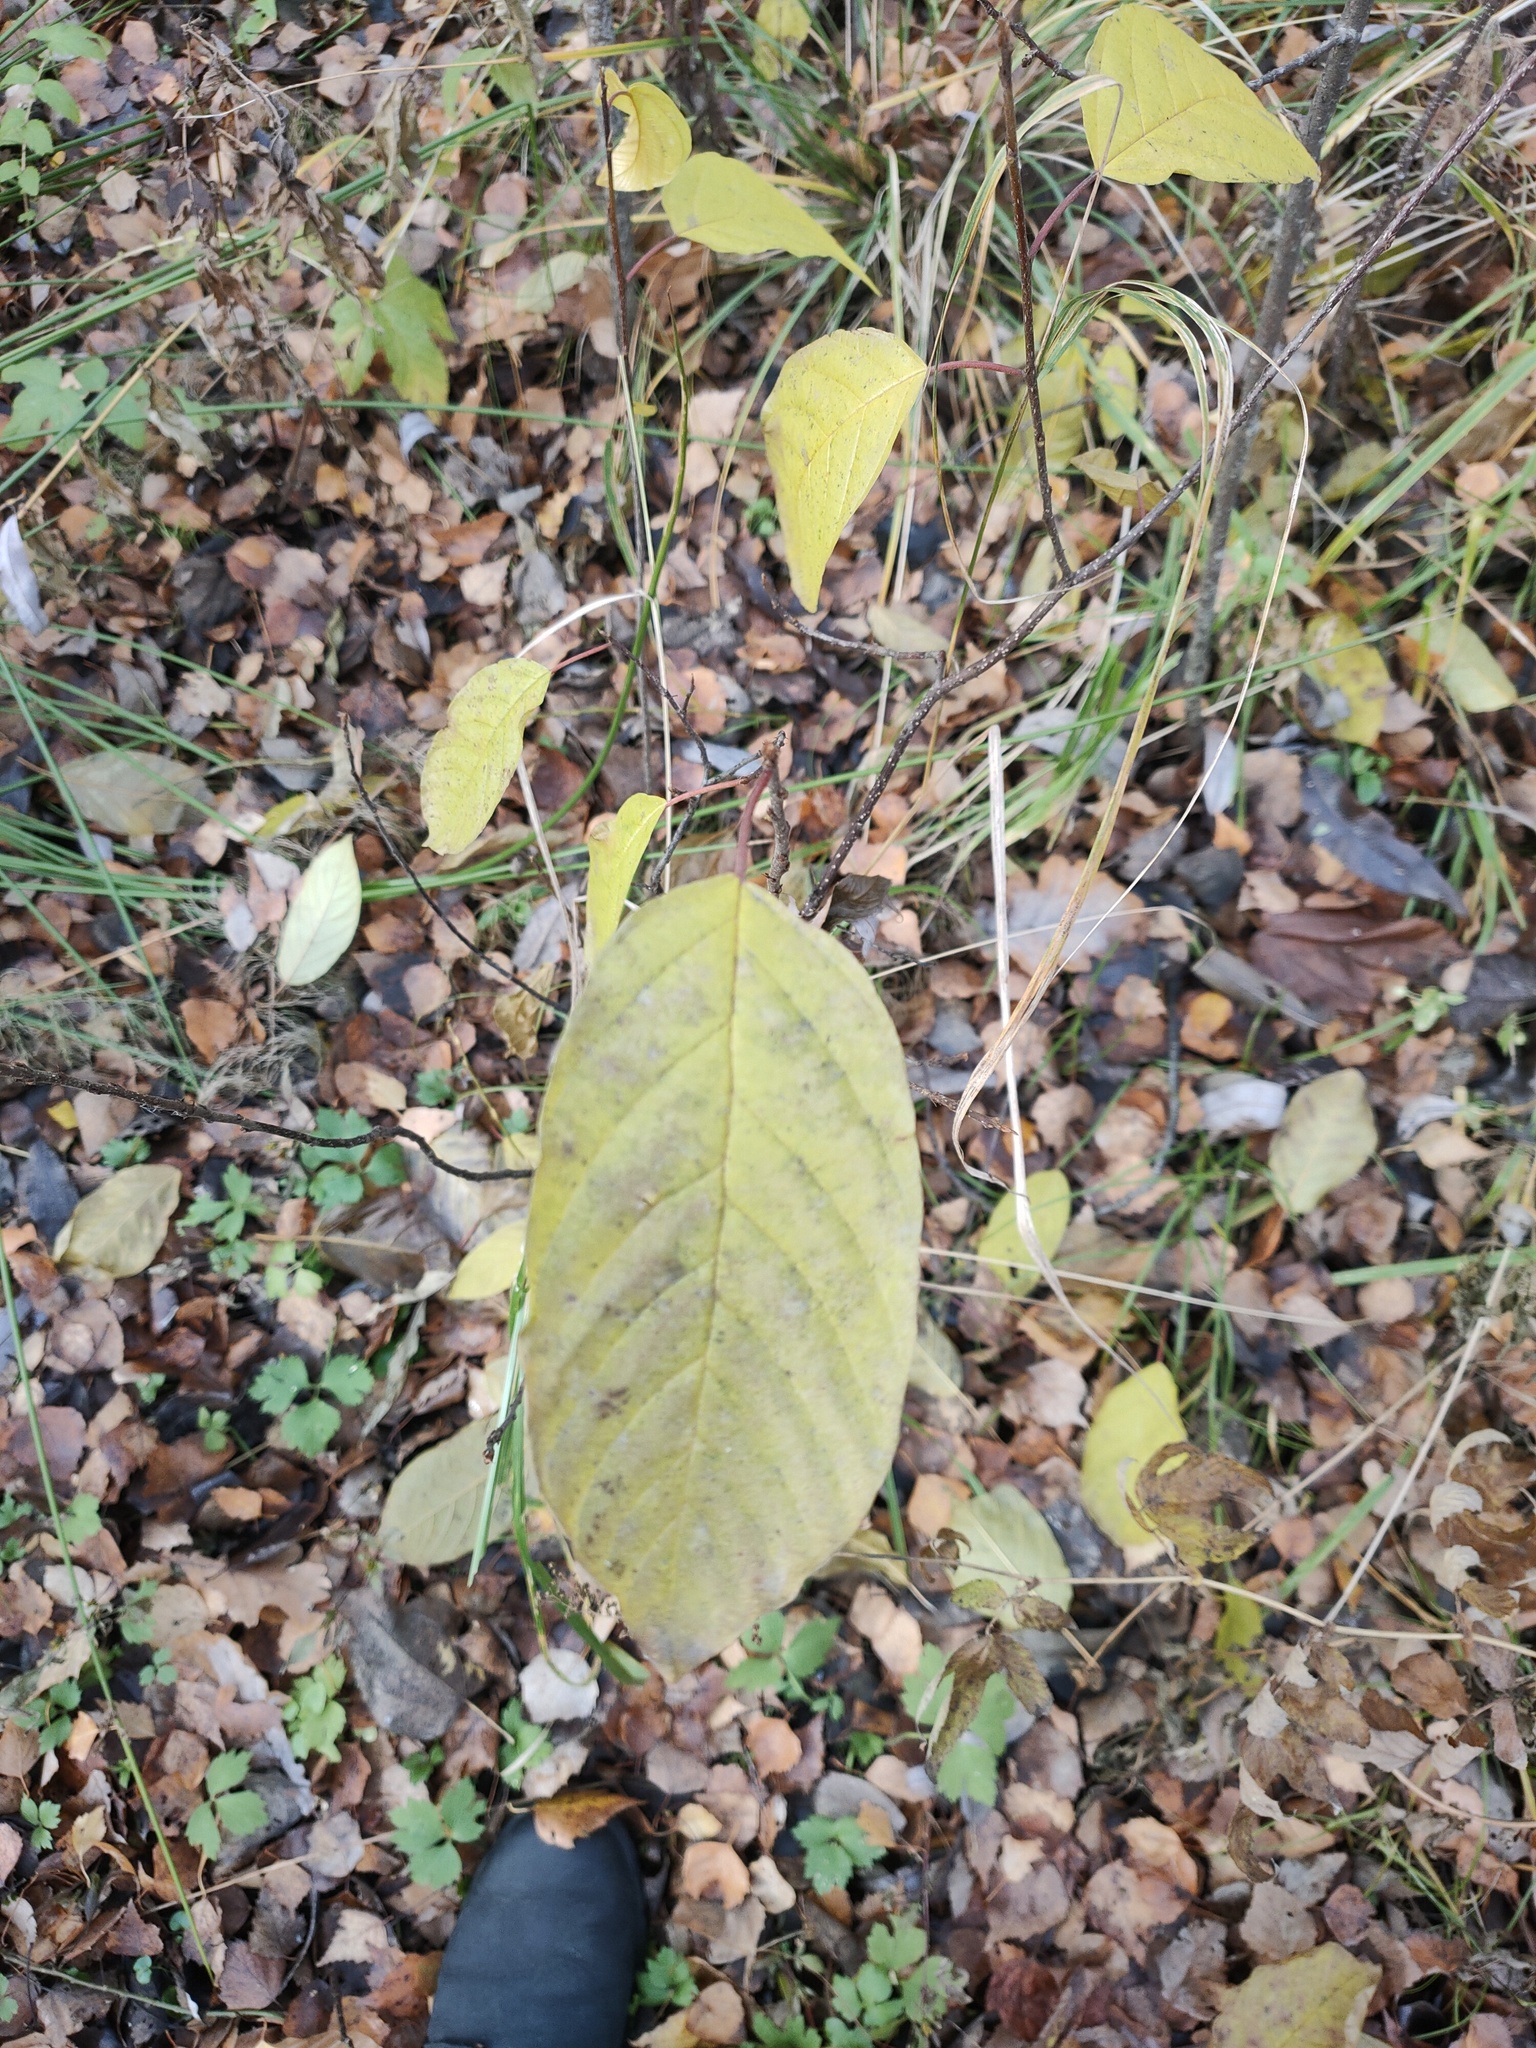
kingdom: Plantae
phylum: Tracheophyta
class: Magnoliopsida
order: Rosales
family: Rhamnaceae
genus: Frangula
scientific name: Frangula alnus
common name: Alder buckthorn
